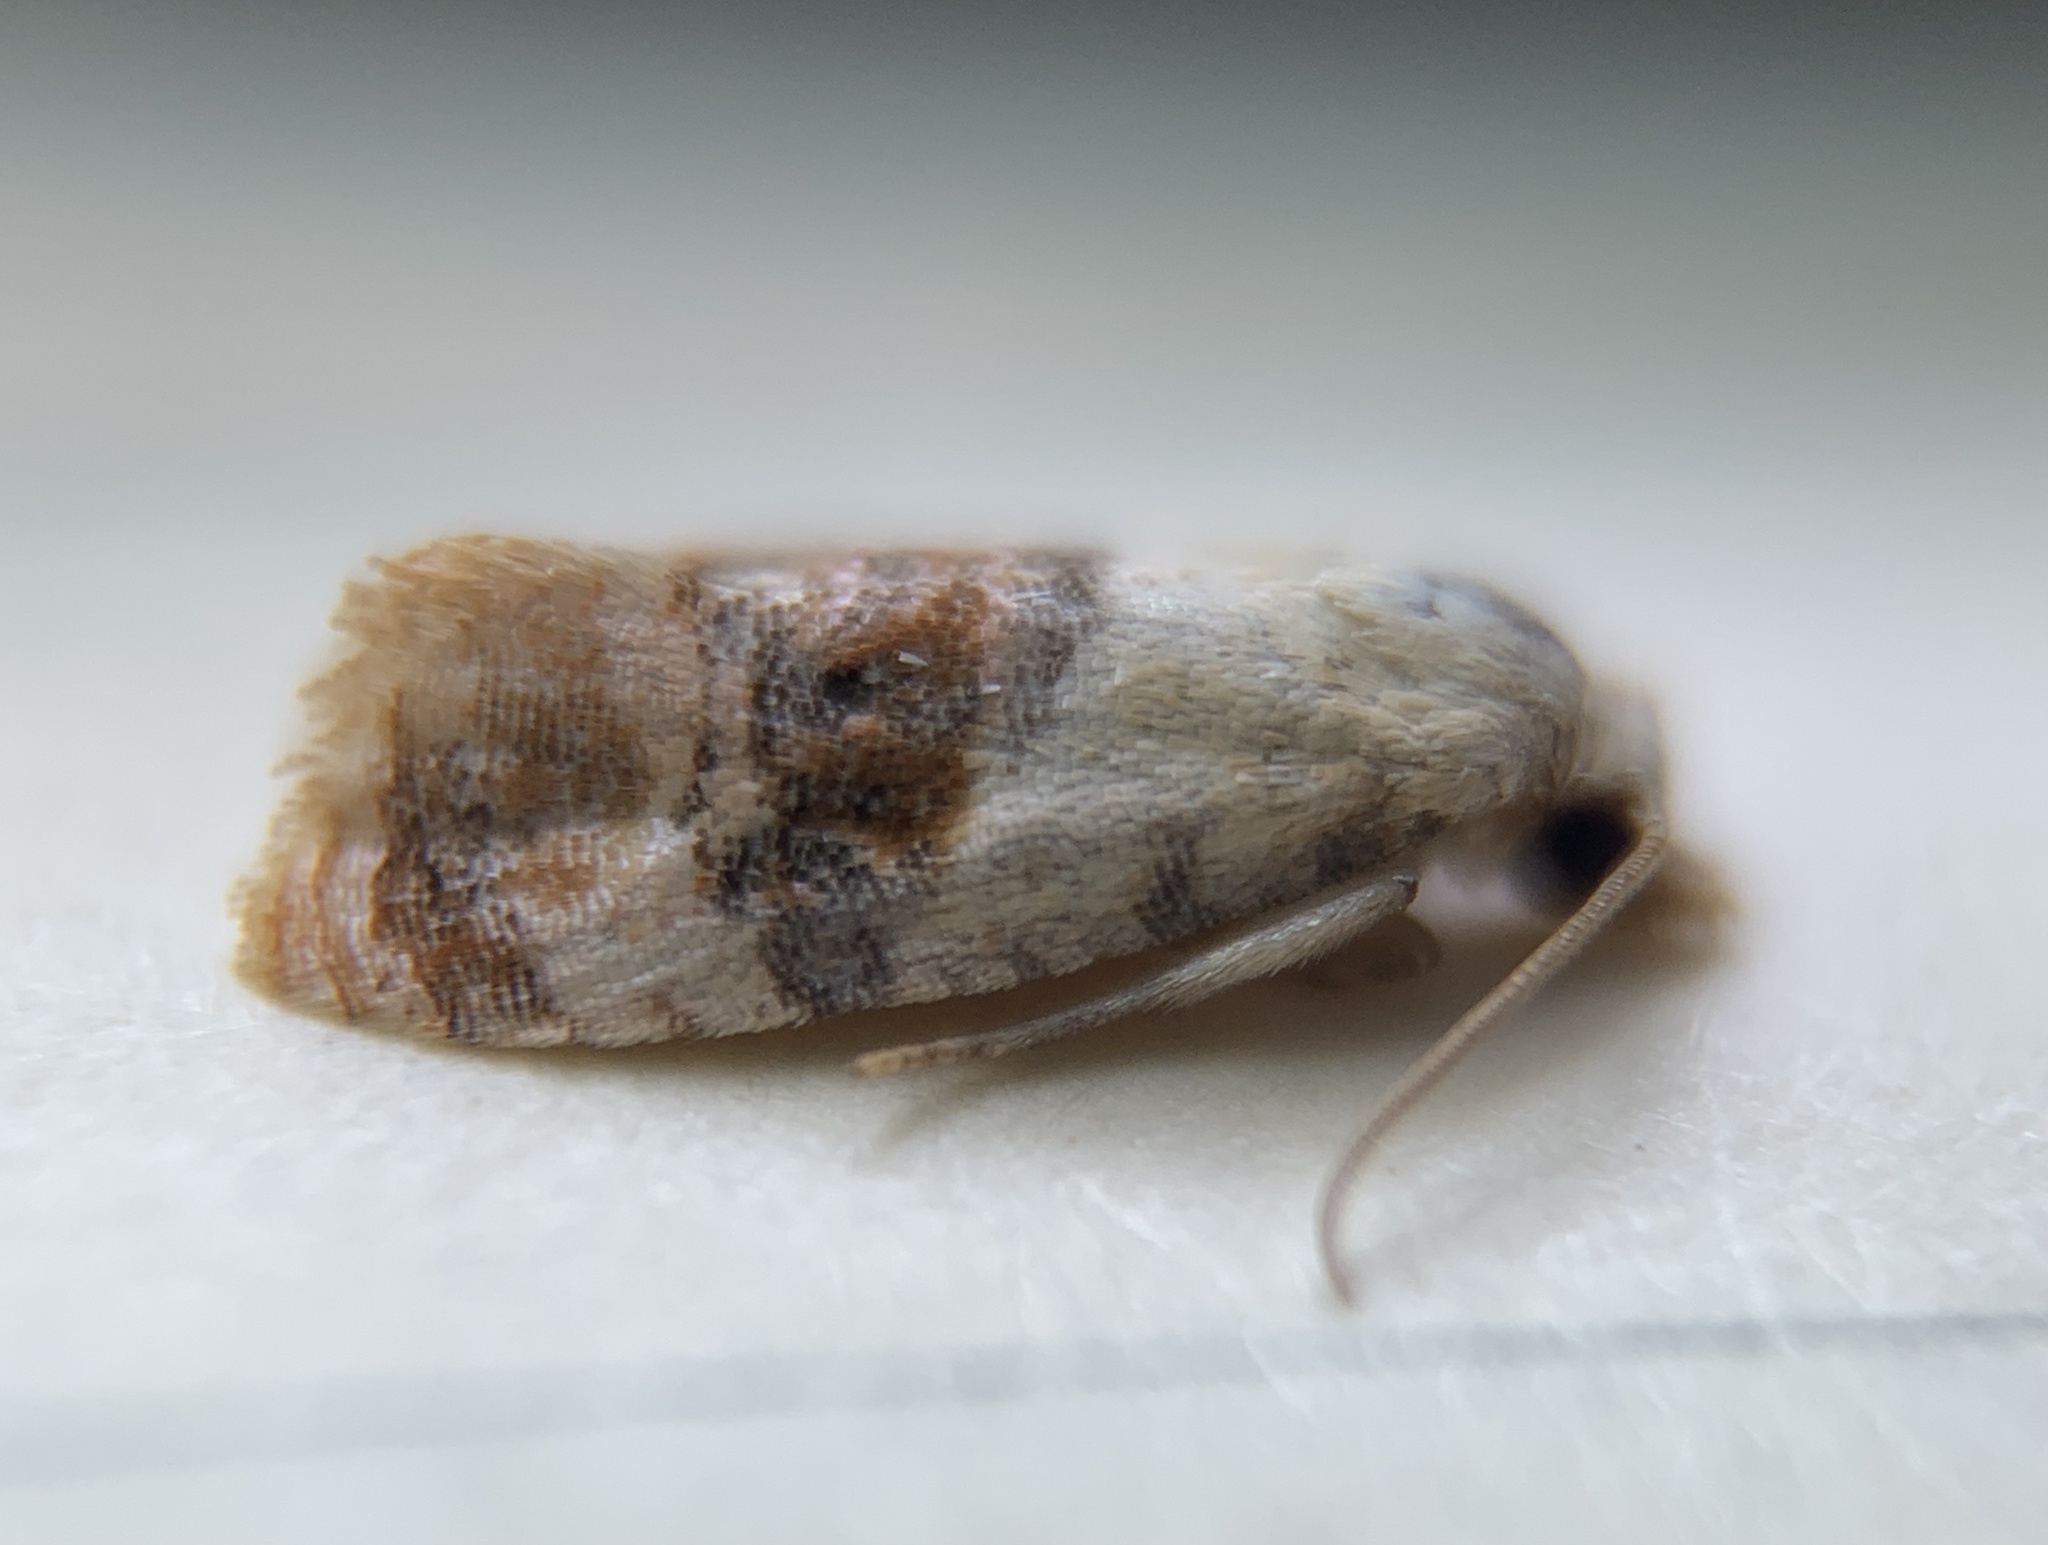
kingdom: Animalia
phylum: Arthropoda
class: Insecta
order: Lepidoptera
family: Tortricidae
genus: Thyraylia
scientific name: Thyraylia bunteana
